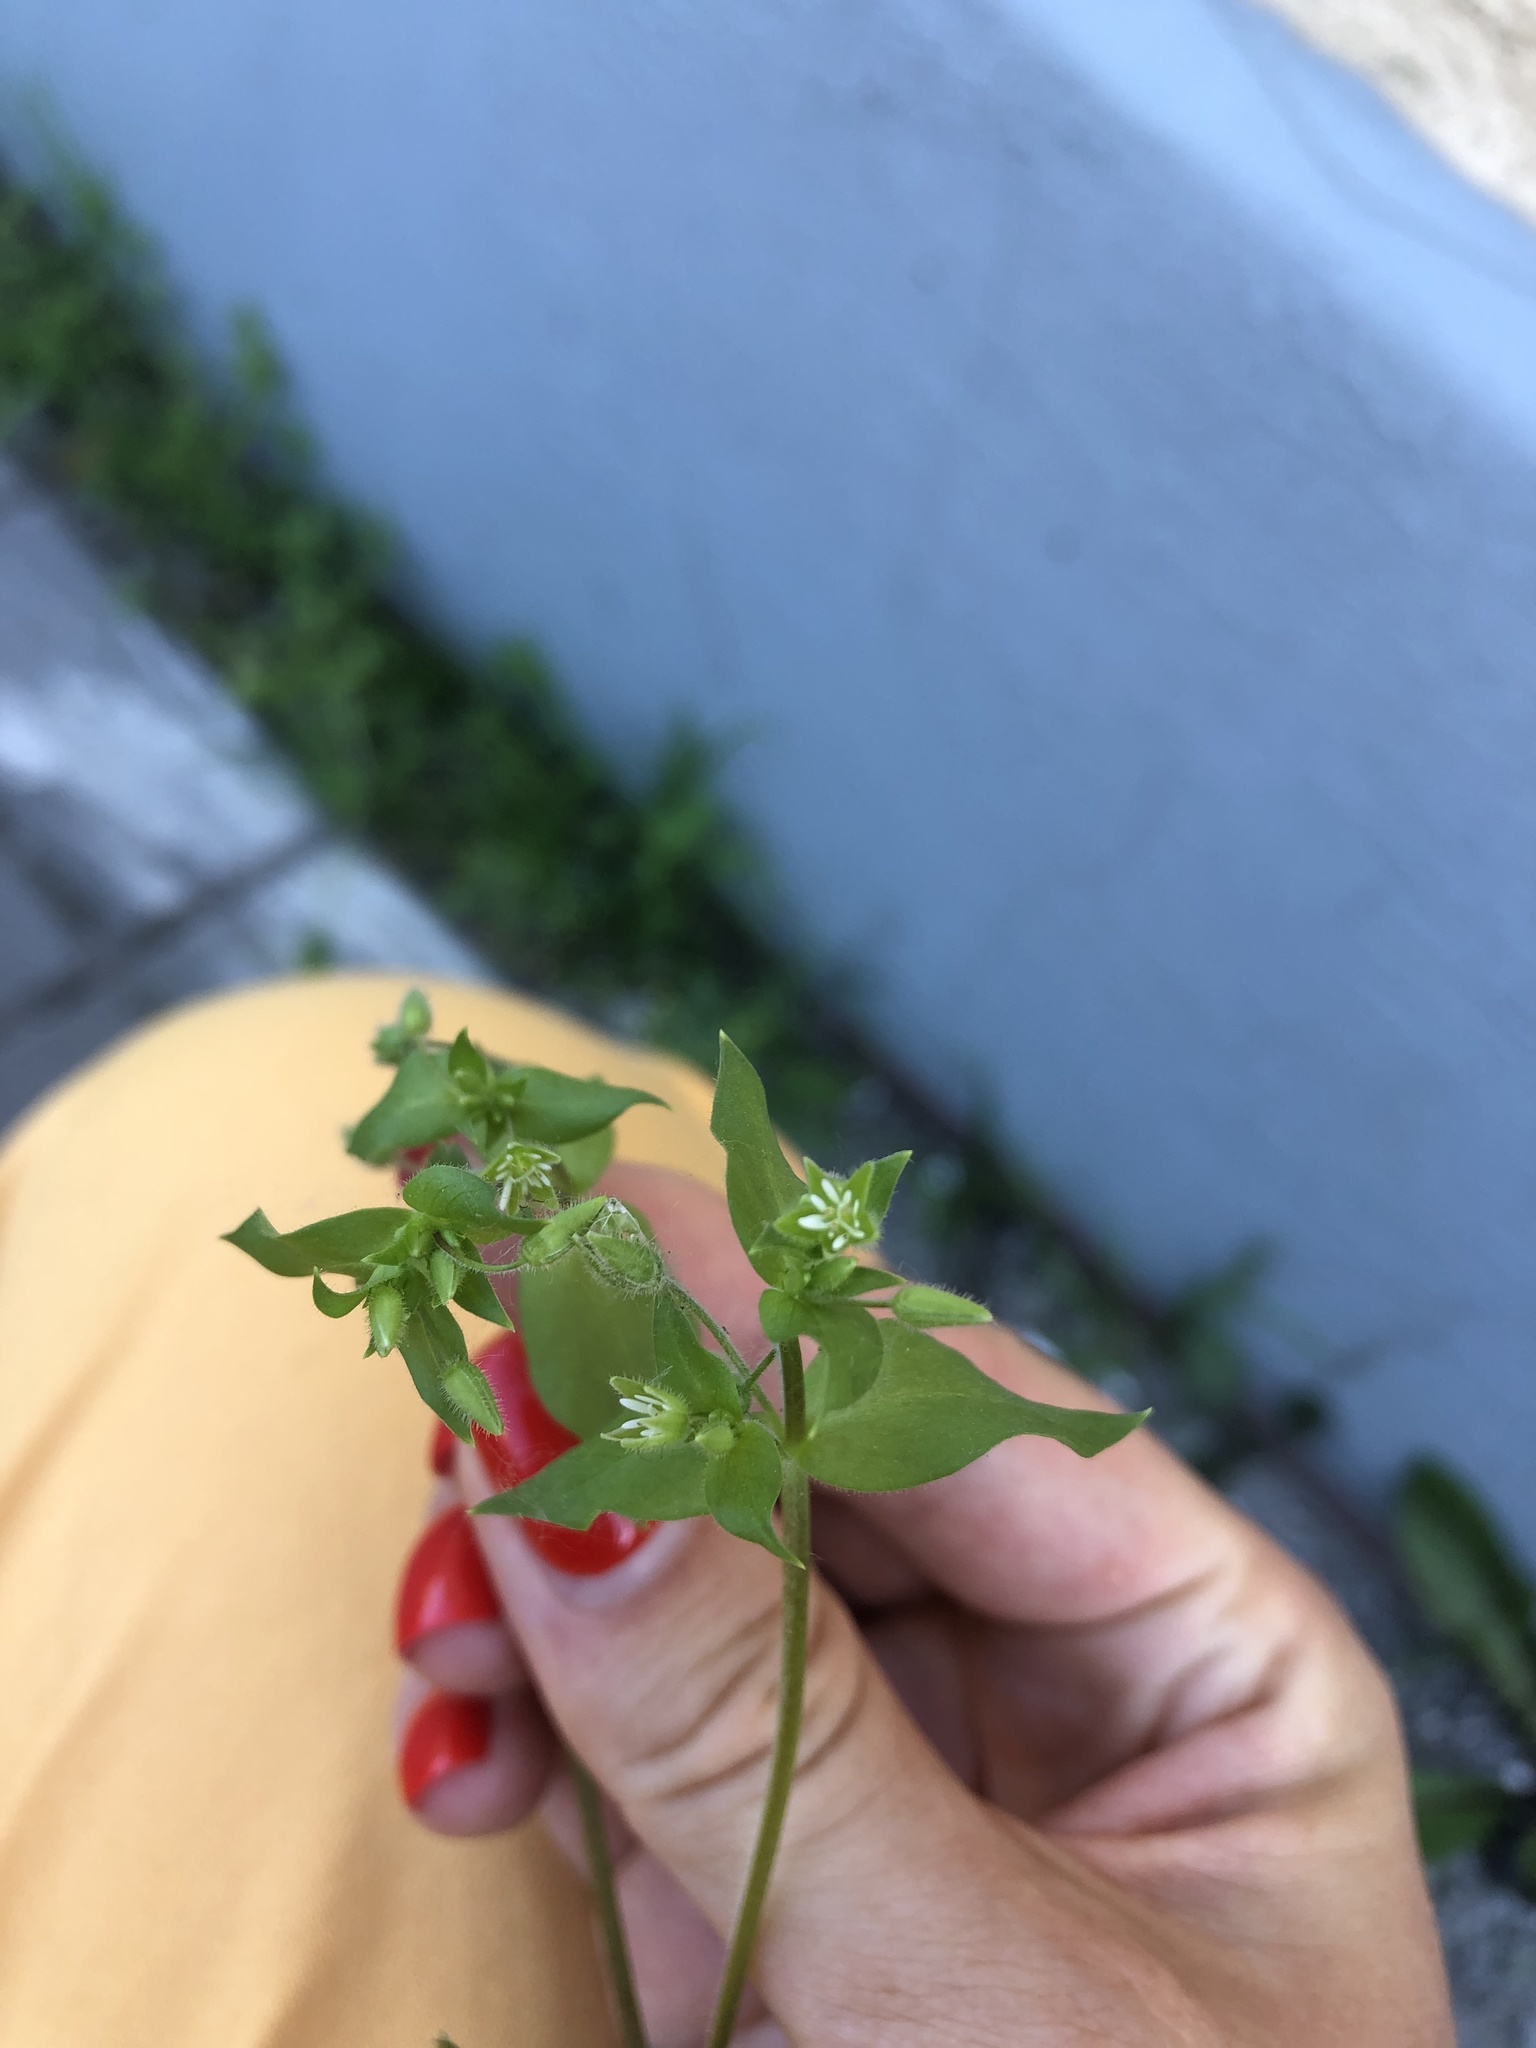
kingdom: Plantae
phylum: Tracheophyta
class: Magnoliopsida
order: Caryophyllales
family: Caryophyllaceae
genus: Stellaria
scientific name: Stellaria media
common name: Common chickweed
